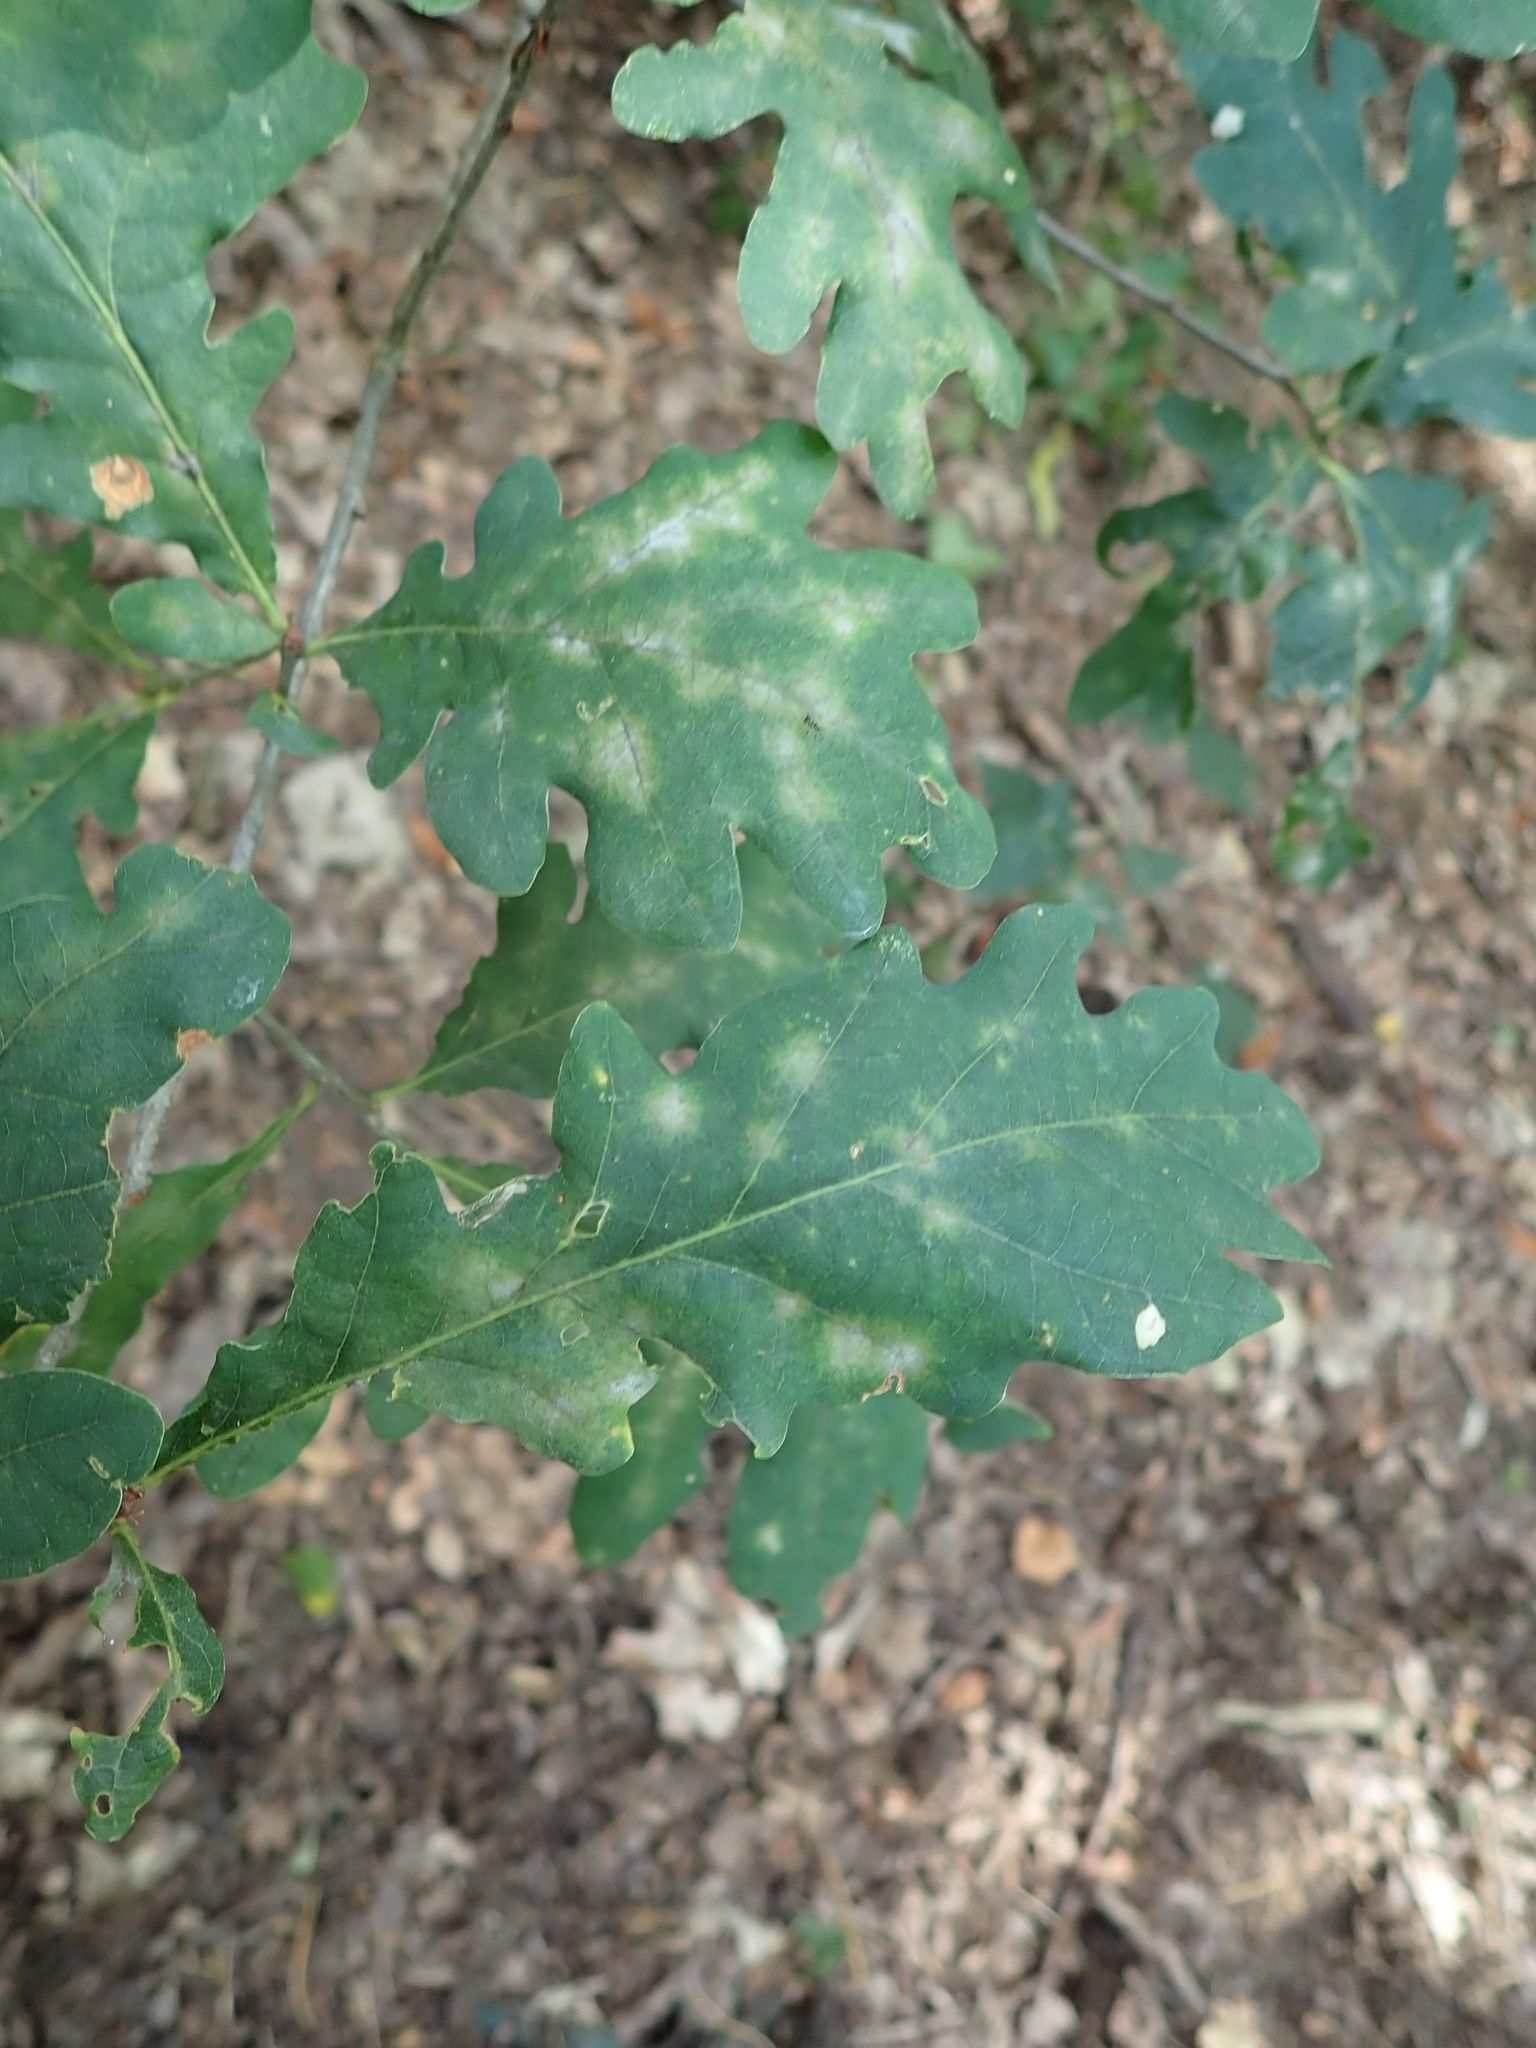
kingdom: Plantae
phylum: Tracheophyta
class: Magnoliopsida
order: Fagales
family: Fagaceae
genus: Quercus
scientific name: Quercus robur
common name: Pedunculate oak
